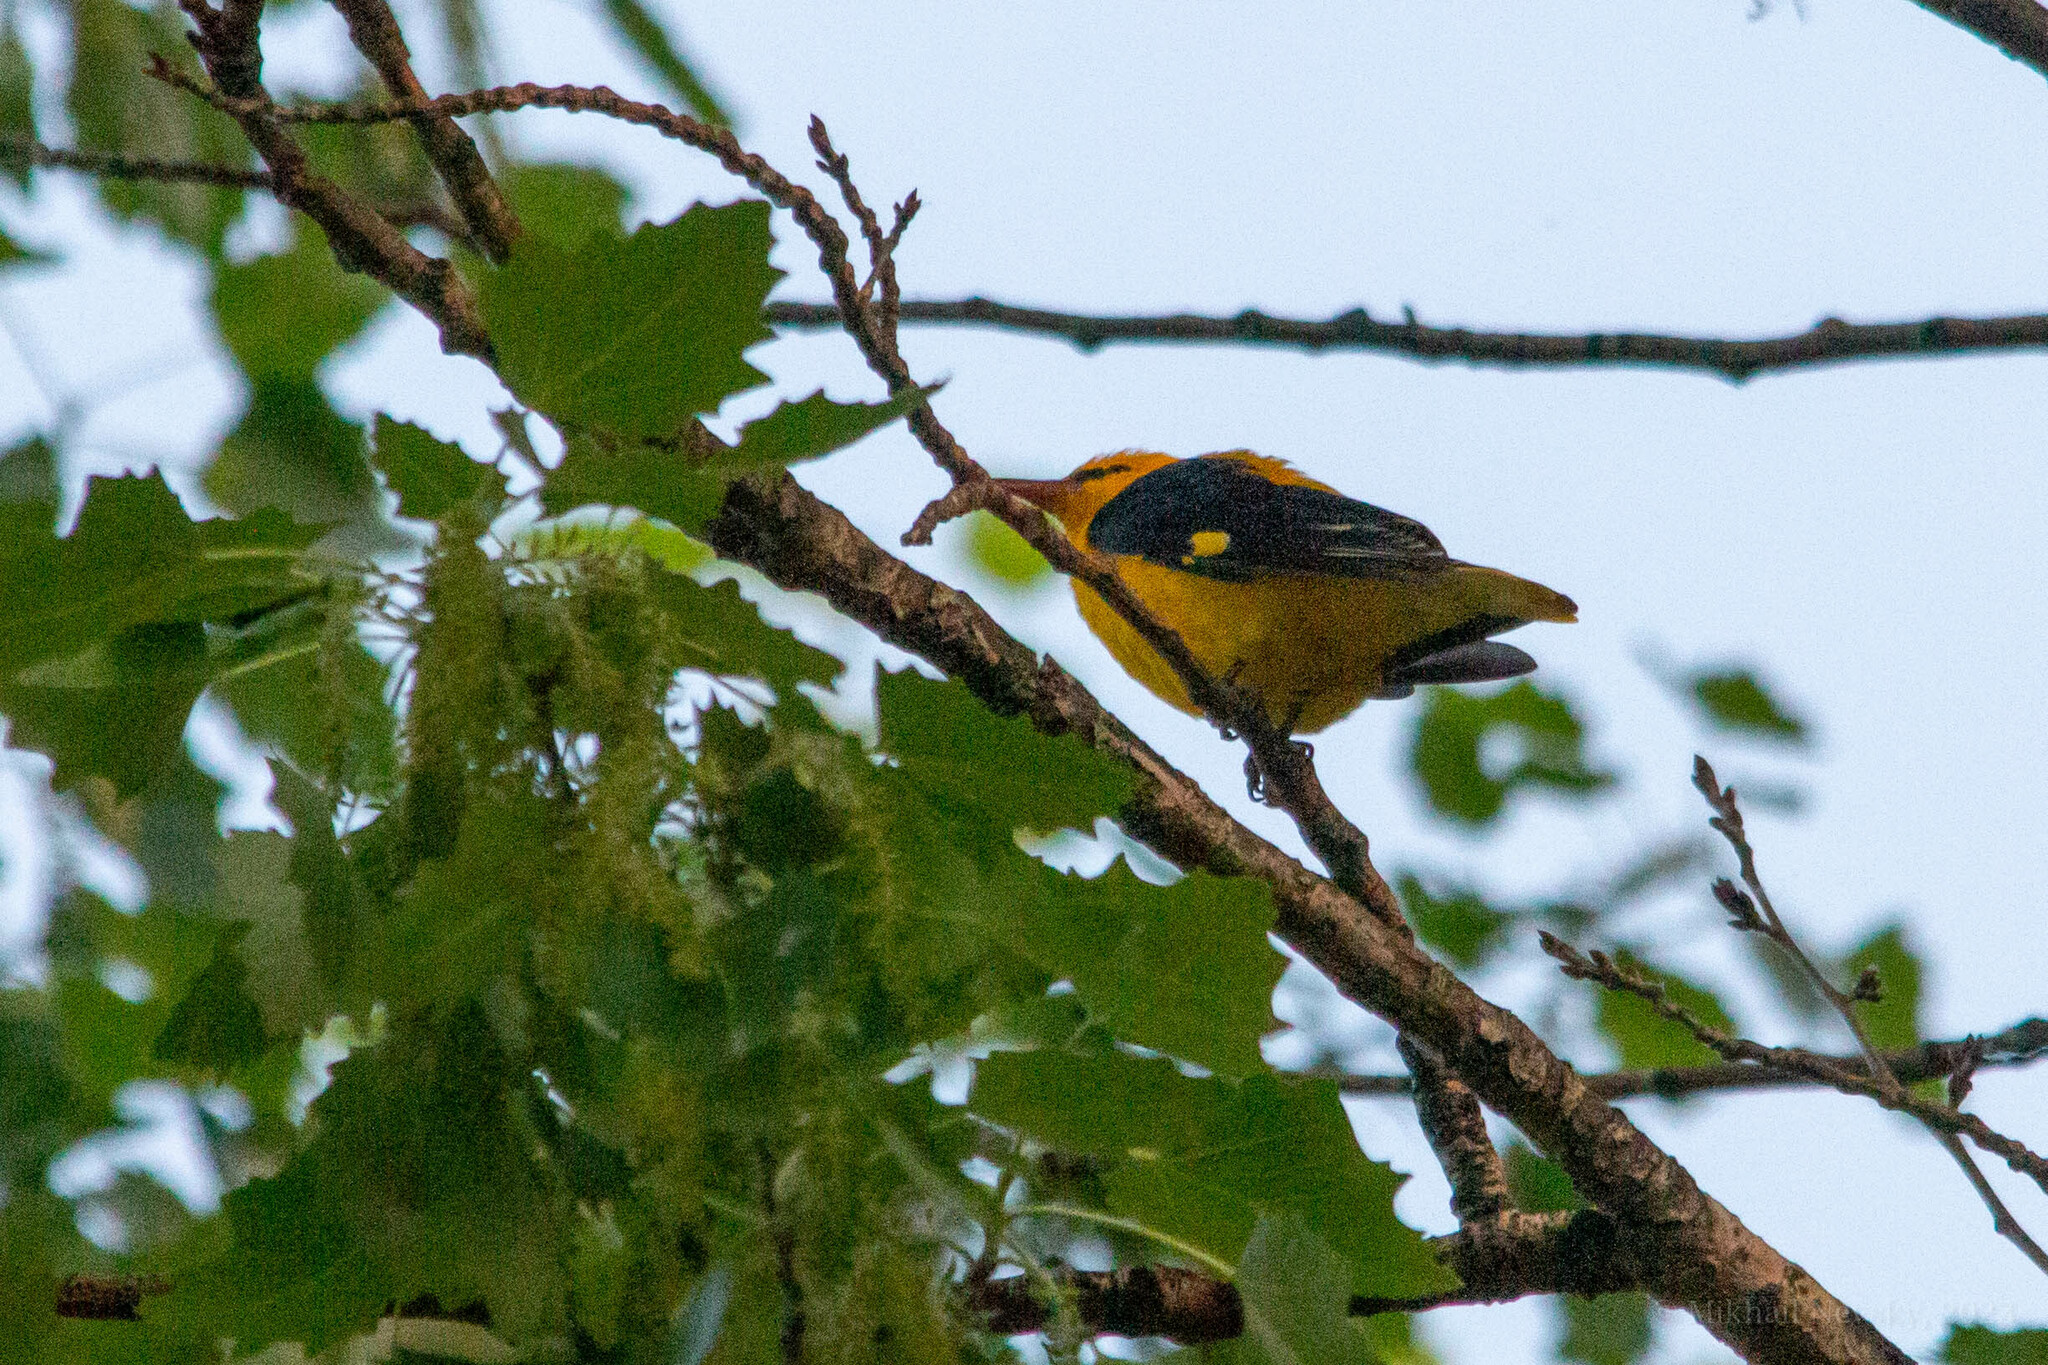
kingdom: Animalia
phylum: Chordata
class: Aves
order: Passeriformes
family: Oriolidae
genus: Oriolus
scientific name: Oriolus oriolus
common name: Eurasian golden oriole
